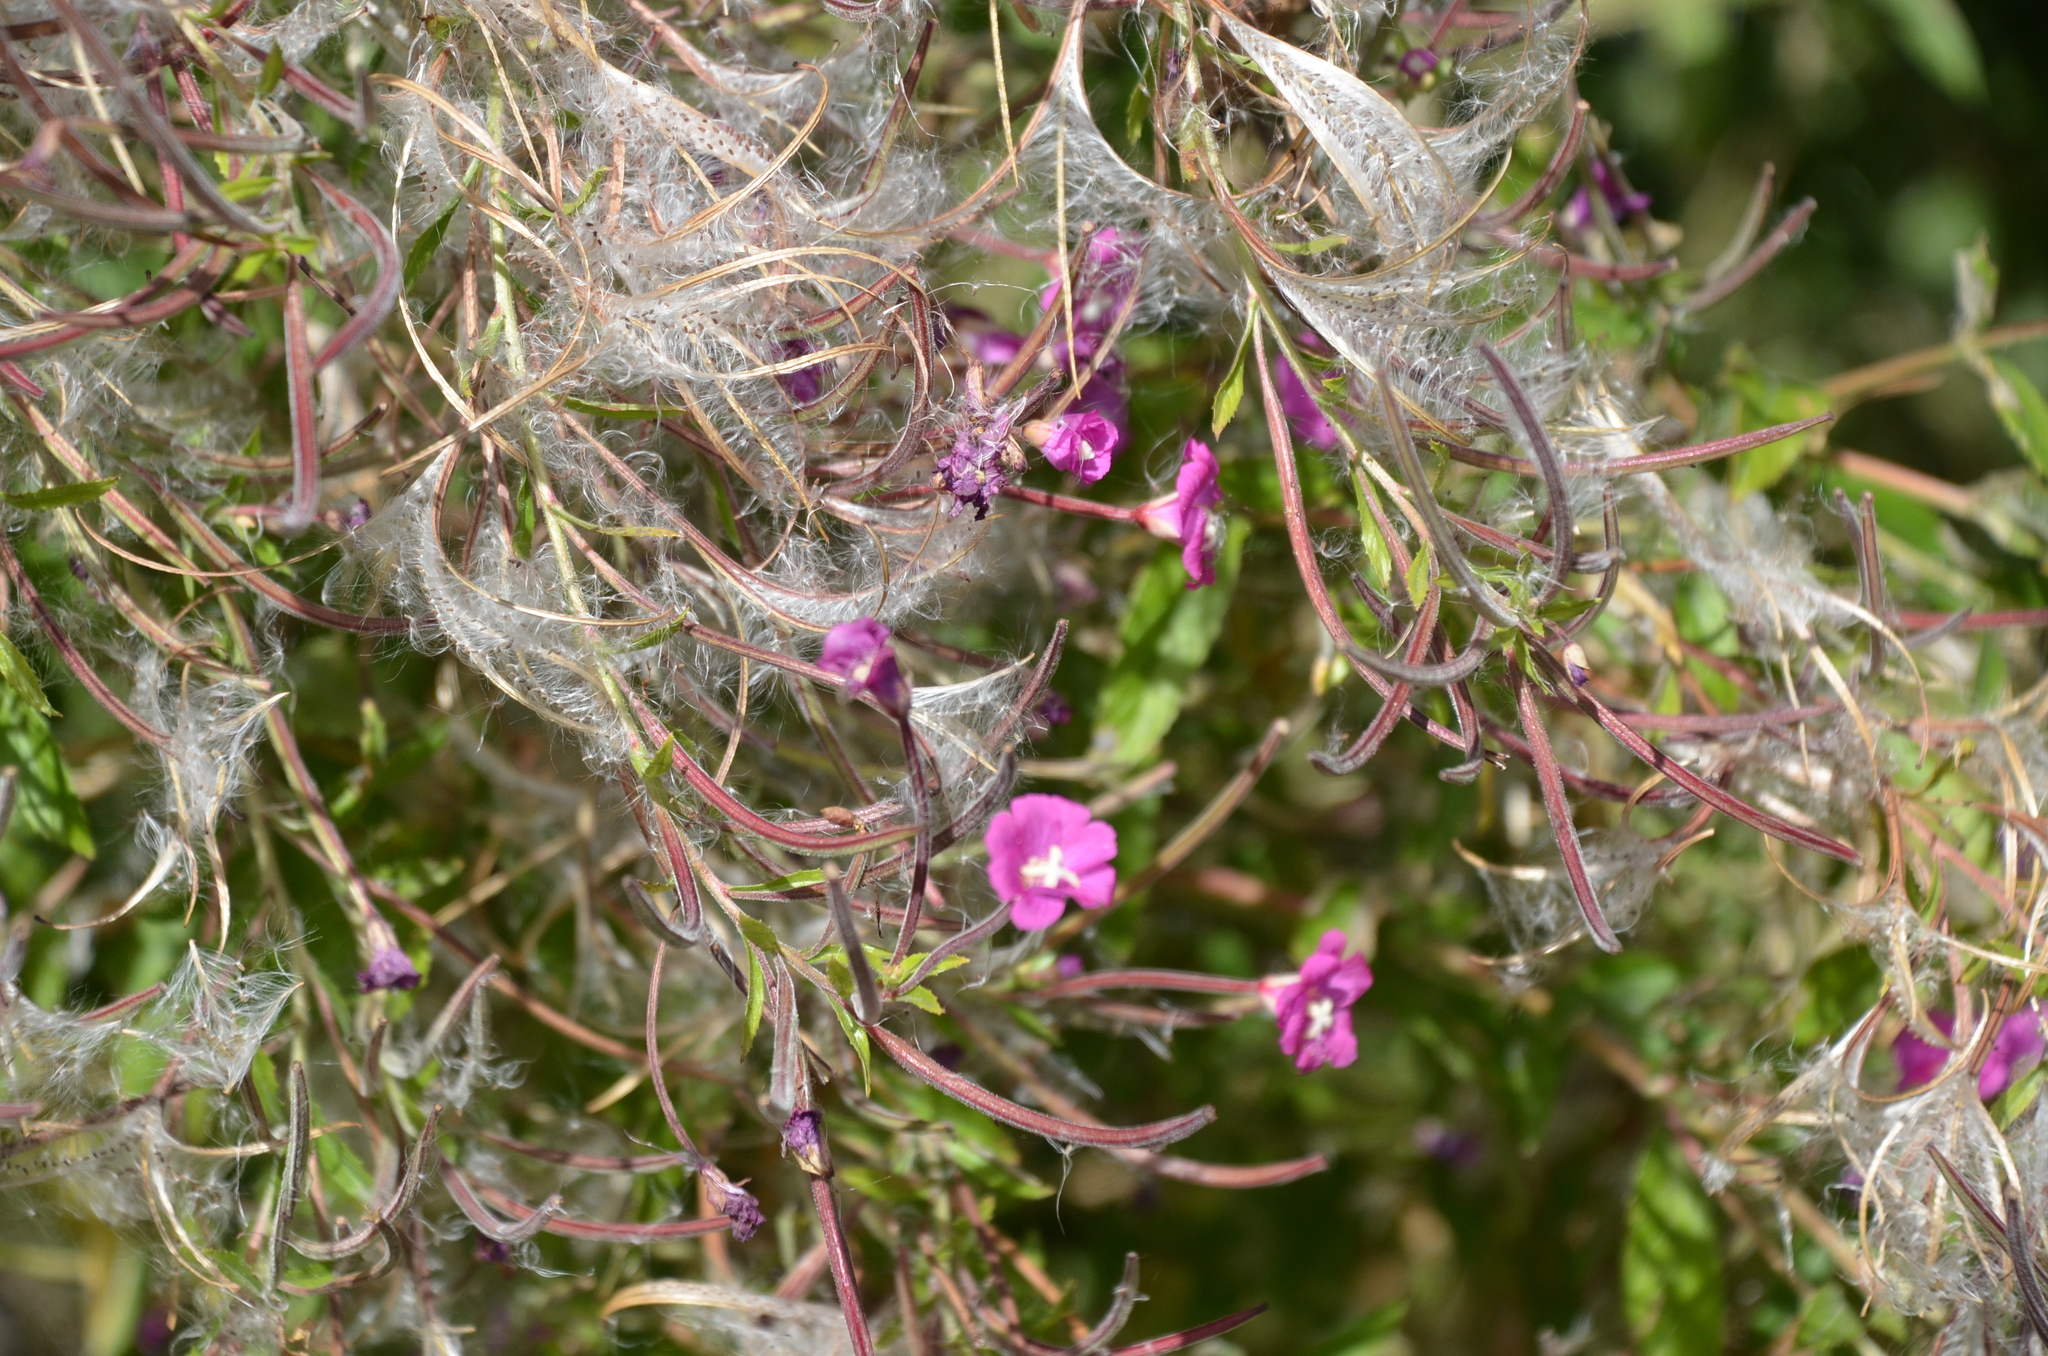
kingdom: Plantae
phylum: Tracheophyta
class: Magnoliopsida
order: Myrtales
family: Onagraceae
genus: Epilobium
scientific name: Epilobium hirsutum
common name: Great willowherb
